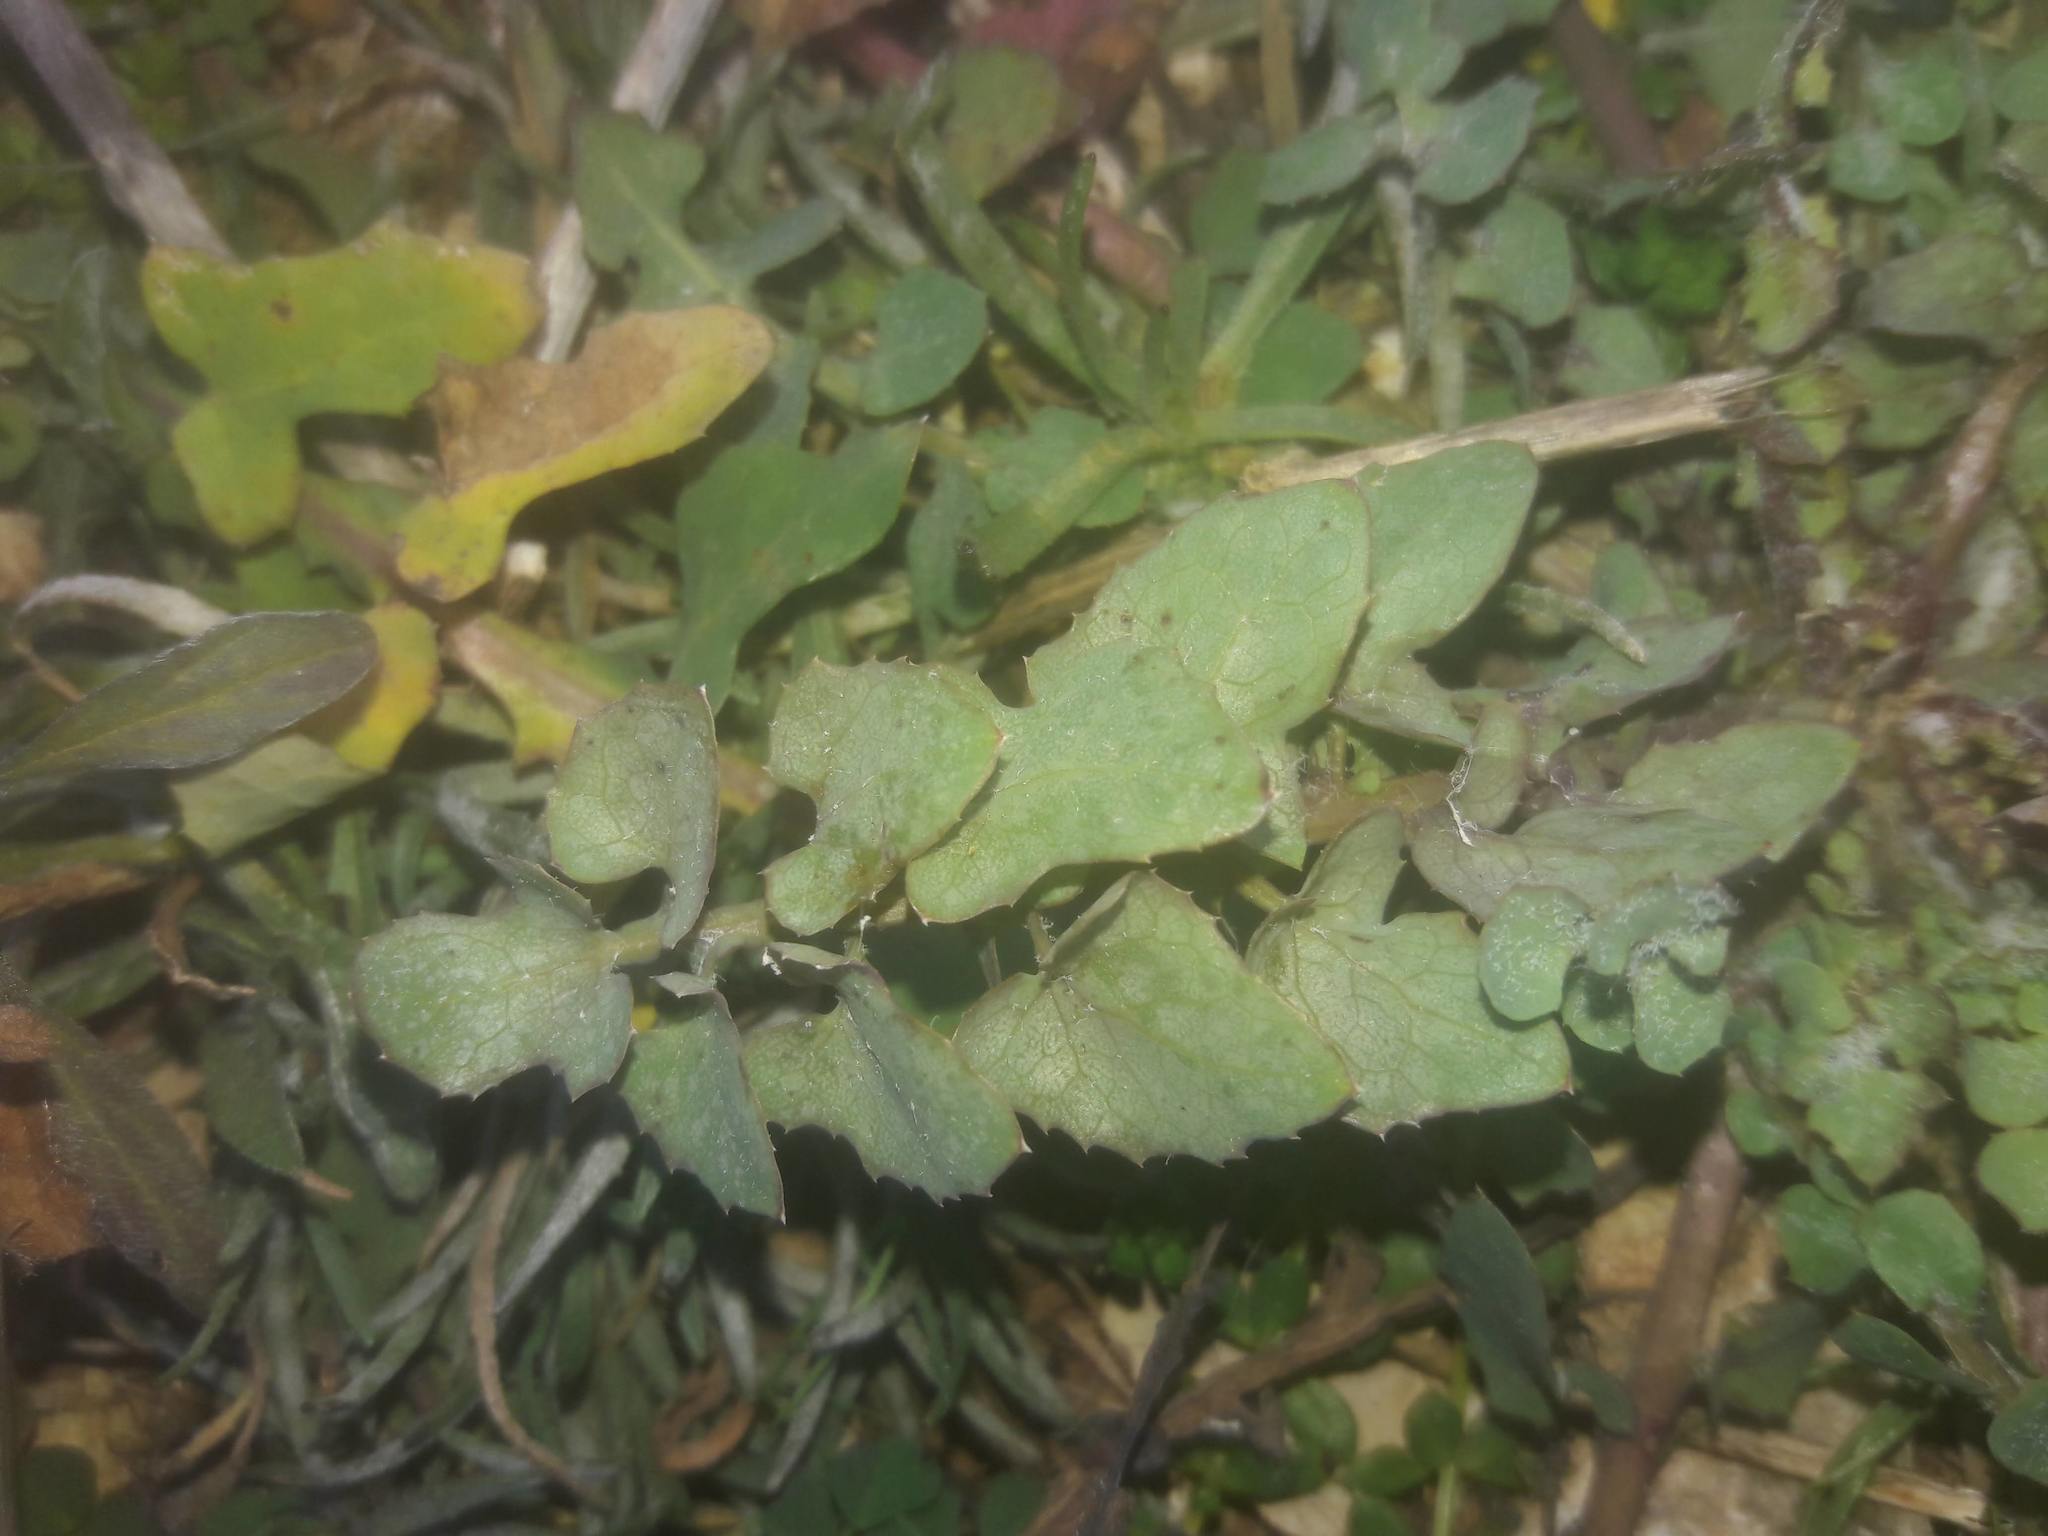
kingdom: Plantae
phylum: Tracheophyta
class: Magnoliopsida
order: Asterales
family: Asteraceae
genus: Sonchus
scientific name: Sonchus tenerrimus
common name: Clammy sowthistle
